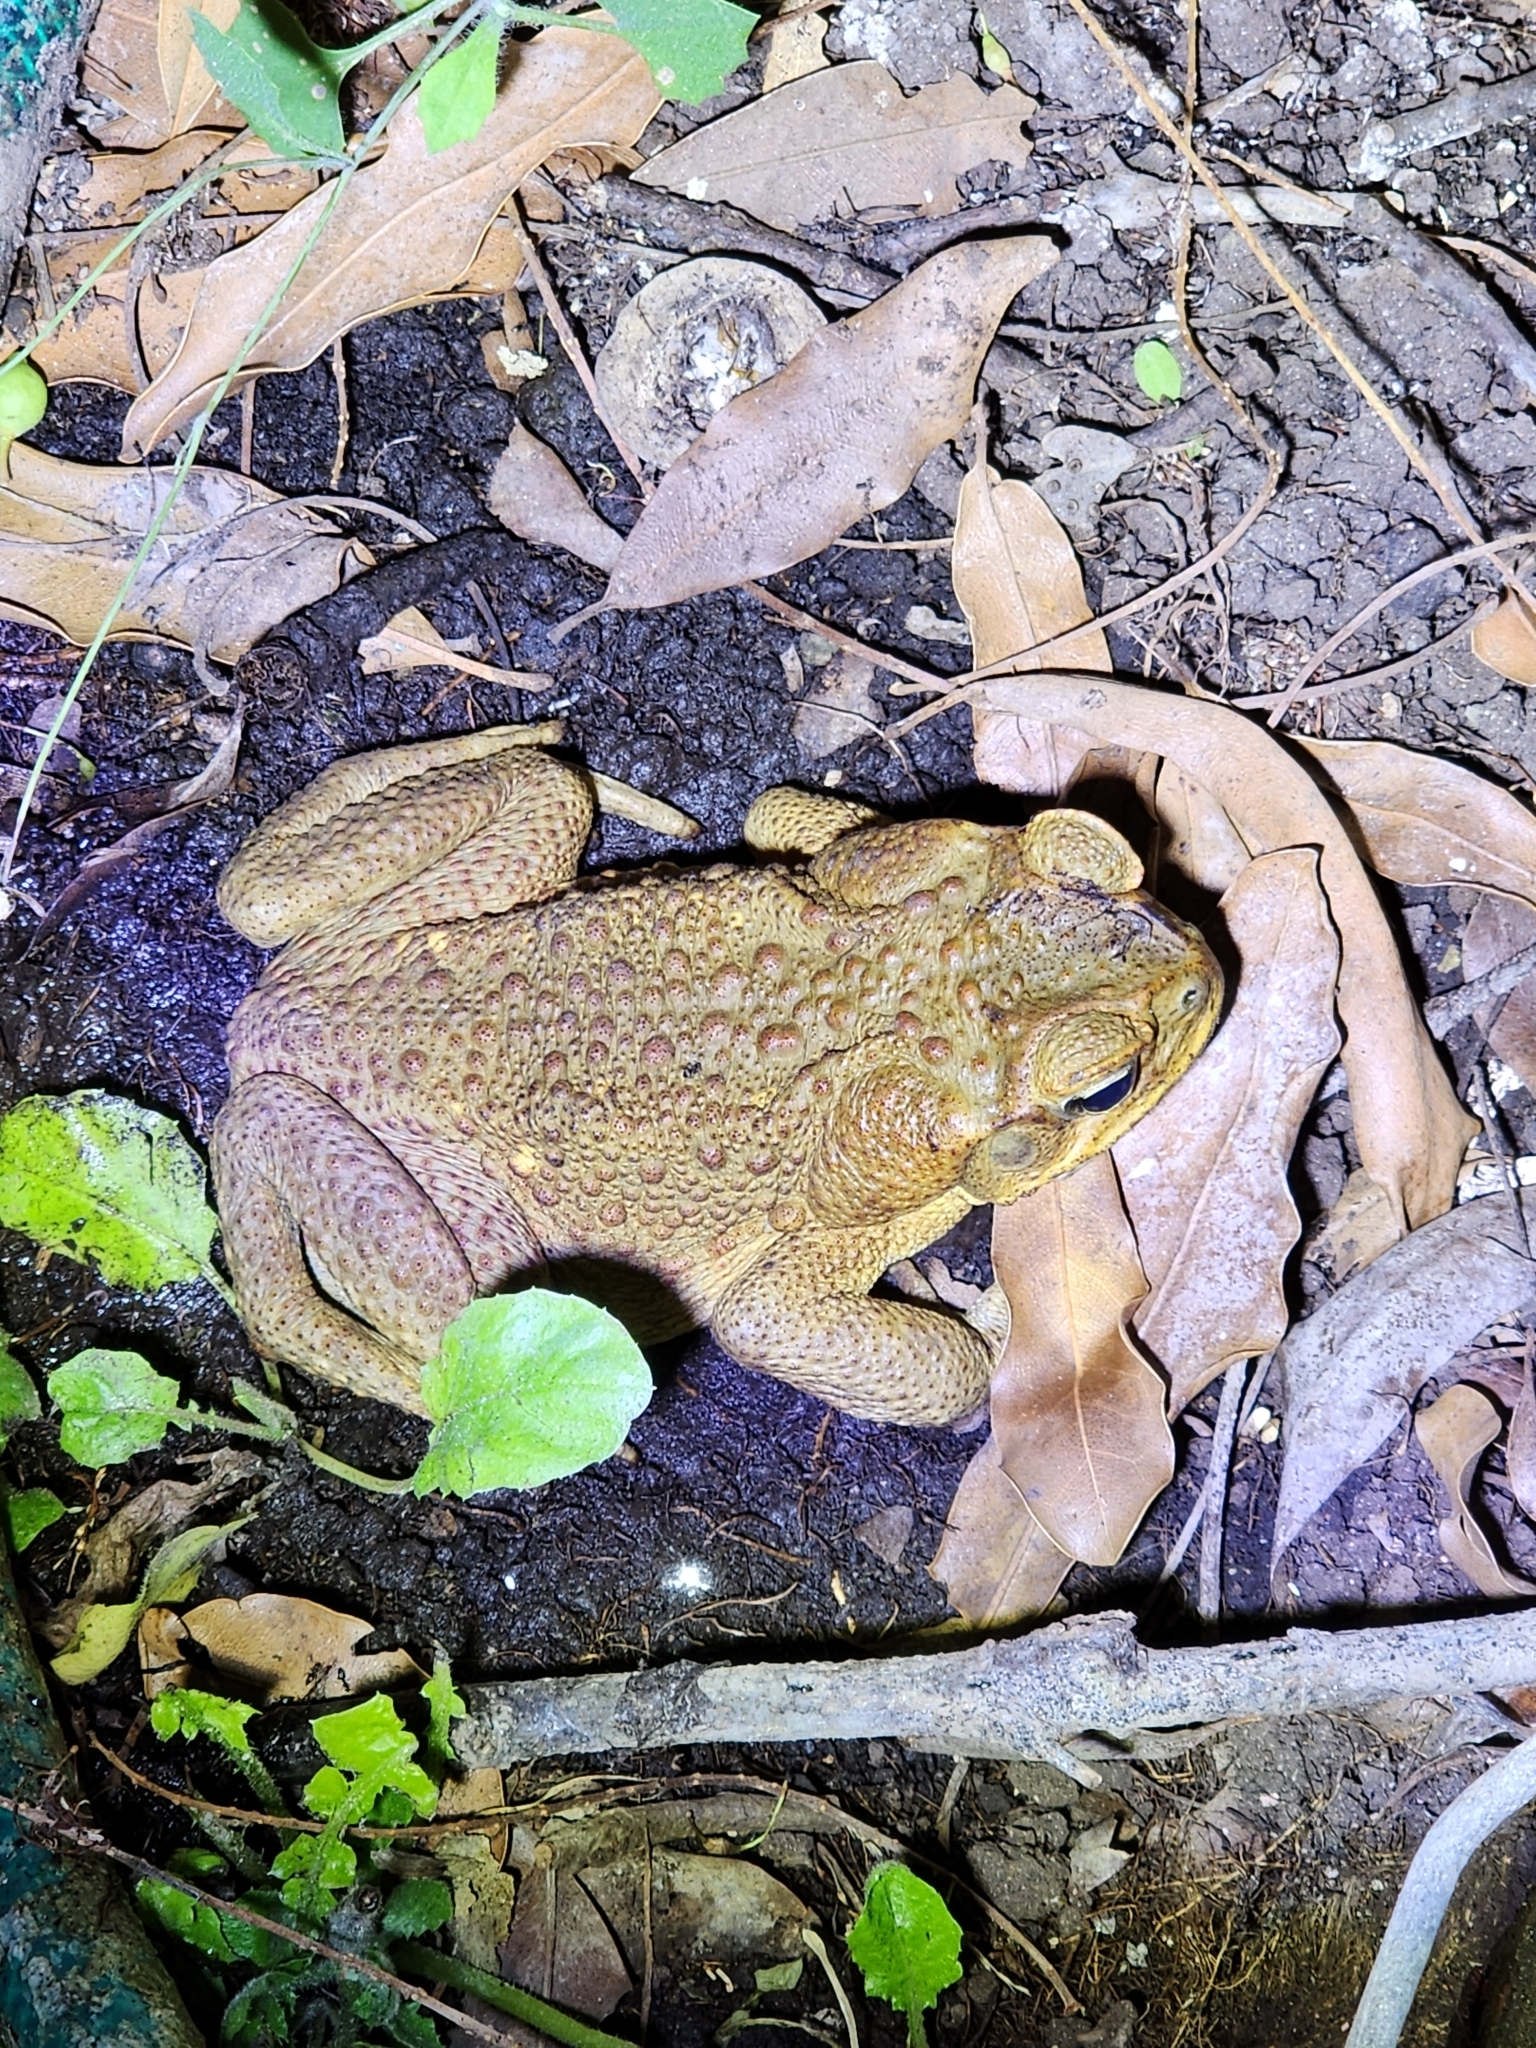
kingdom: Animalia
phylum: Chordata
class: Amphibia
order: Anura
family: Bufonidae
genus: Rhinella
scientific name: Rhinella marina
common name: Cane toad
